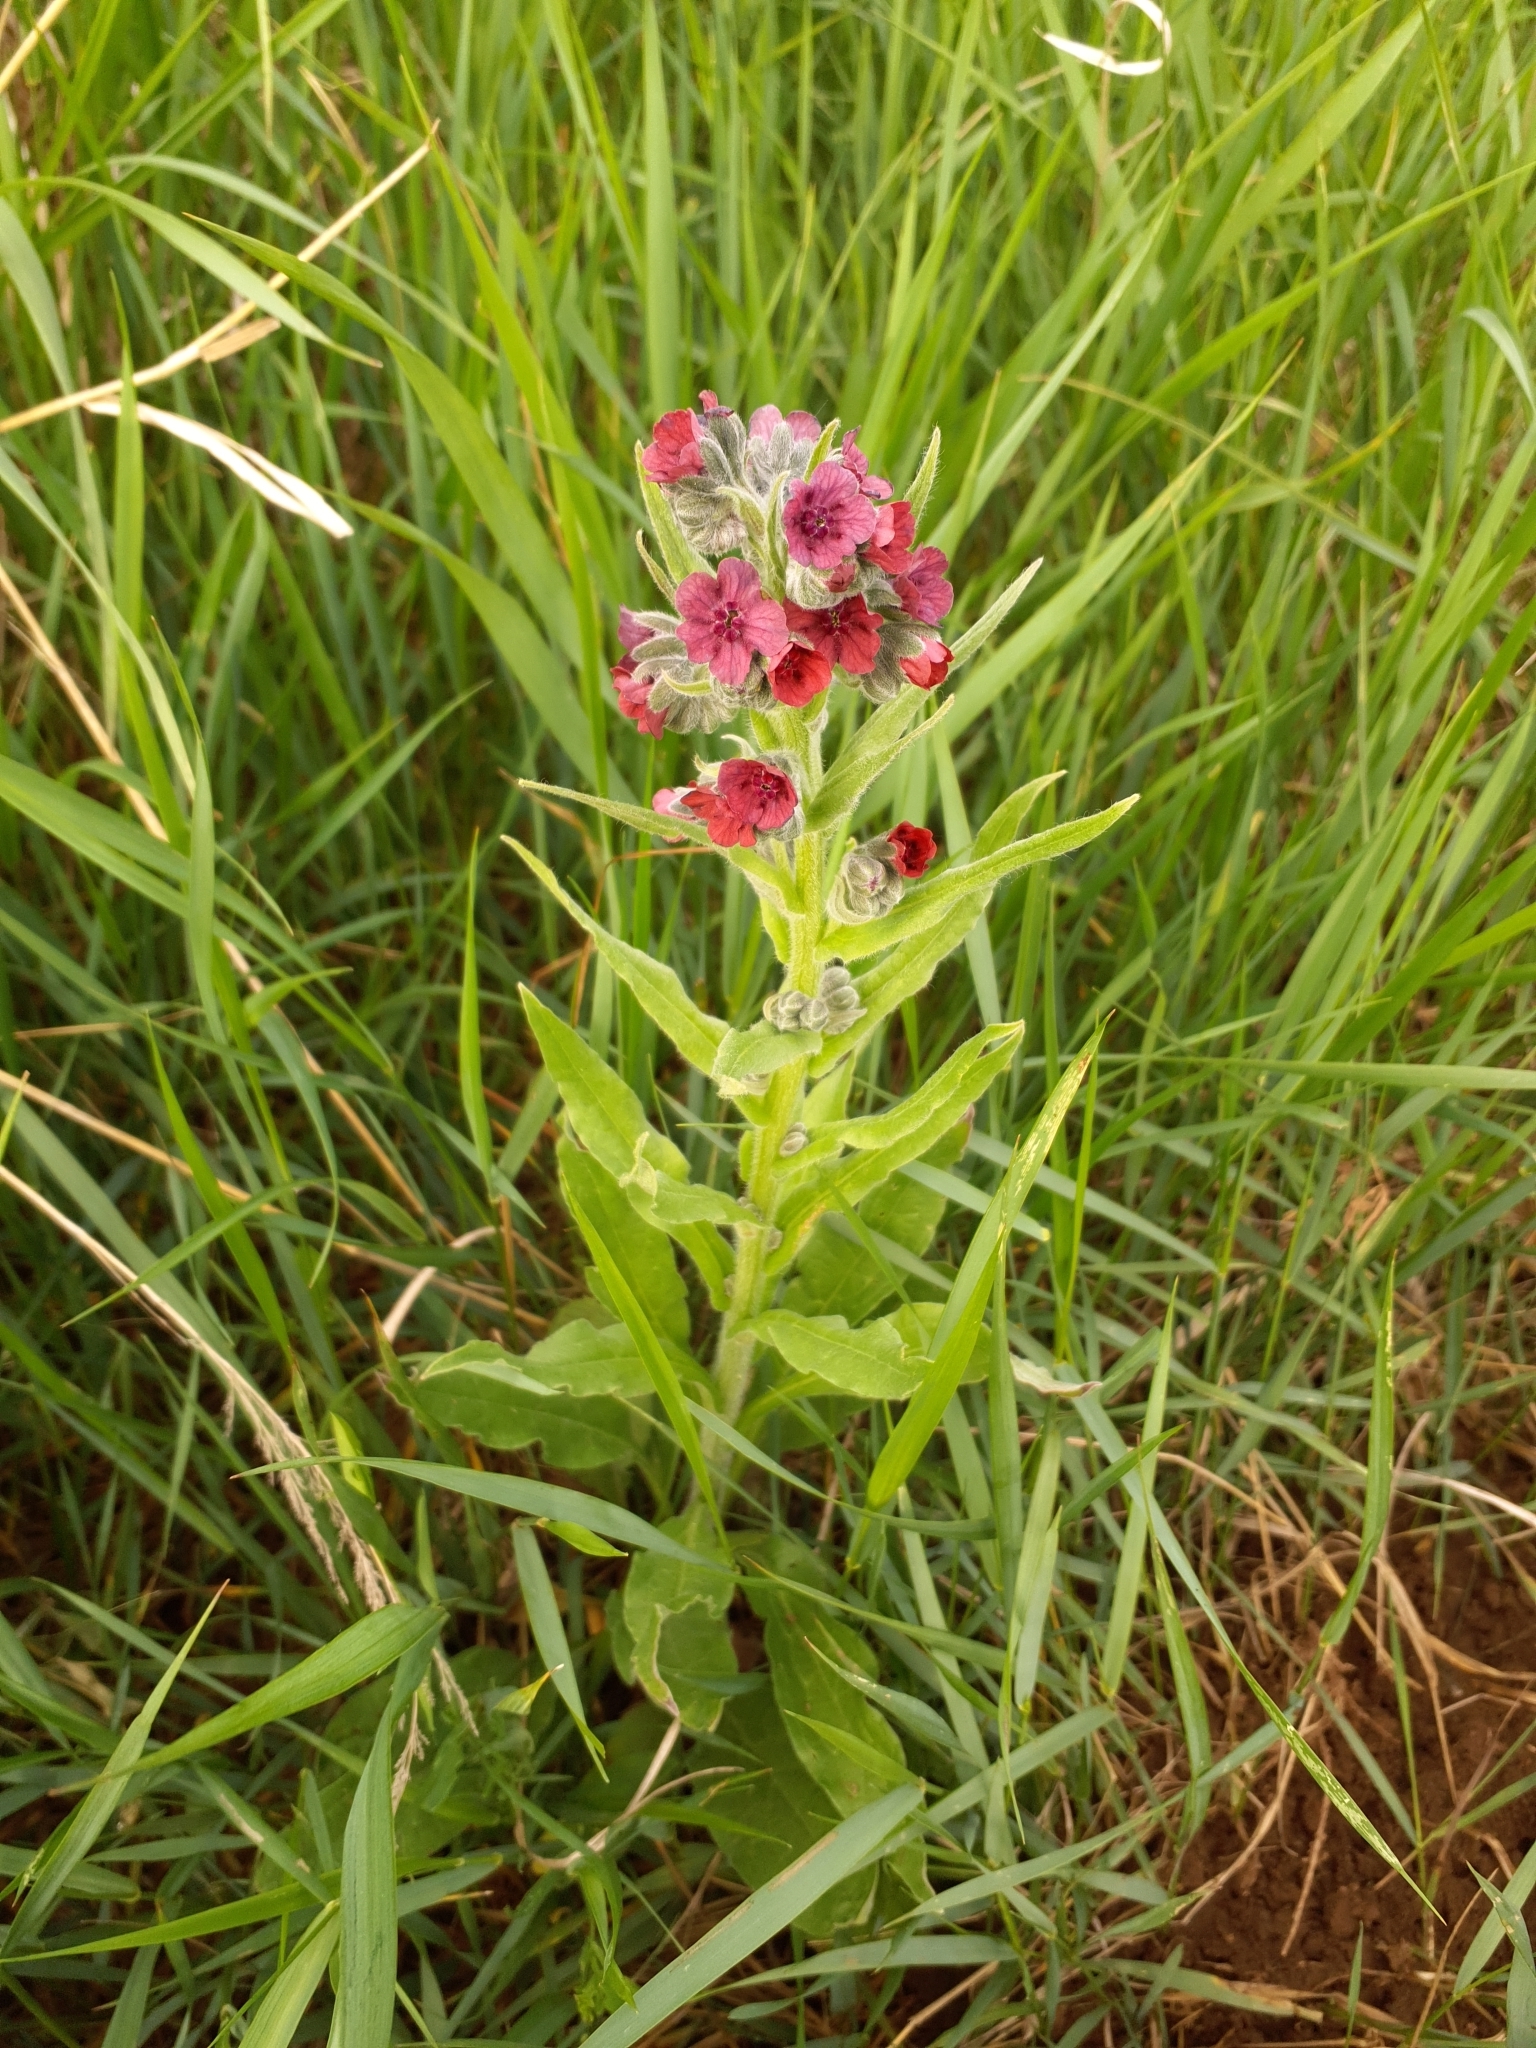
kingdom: Plantae
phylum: Tracheophyta
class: Magnoliopsida
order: Boraginales
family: Boraginaceae
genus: Cynoglossum
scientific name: Cynoglossum officinale
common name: Hound's-tongue
